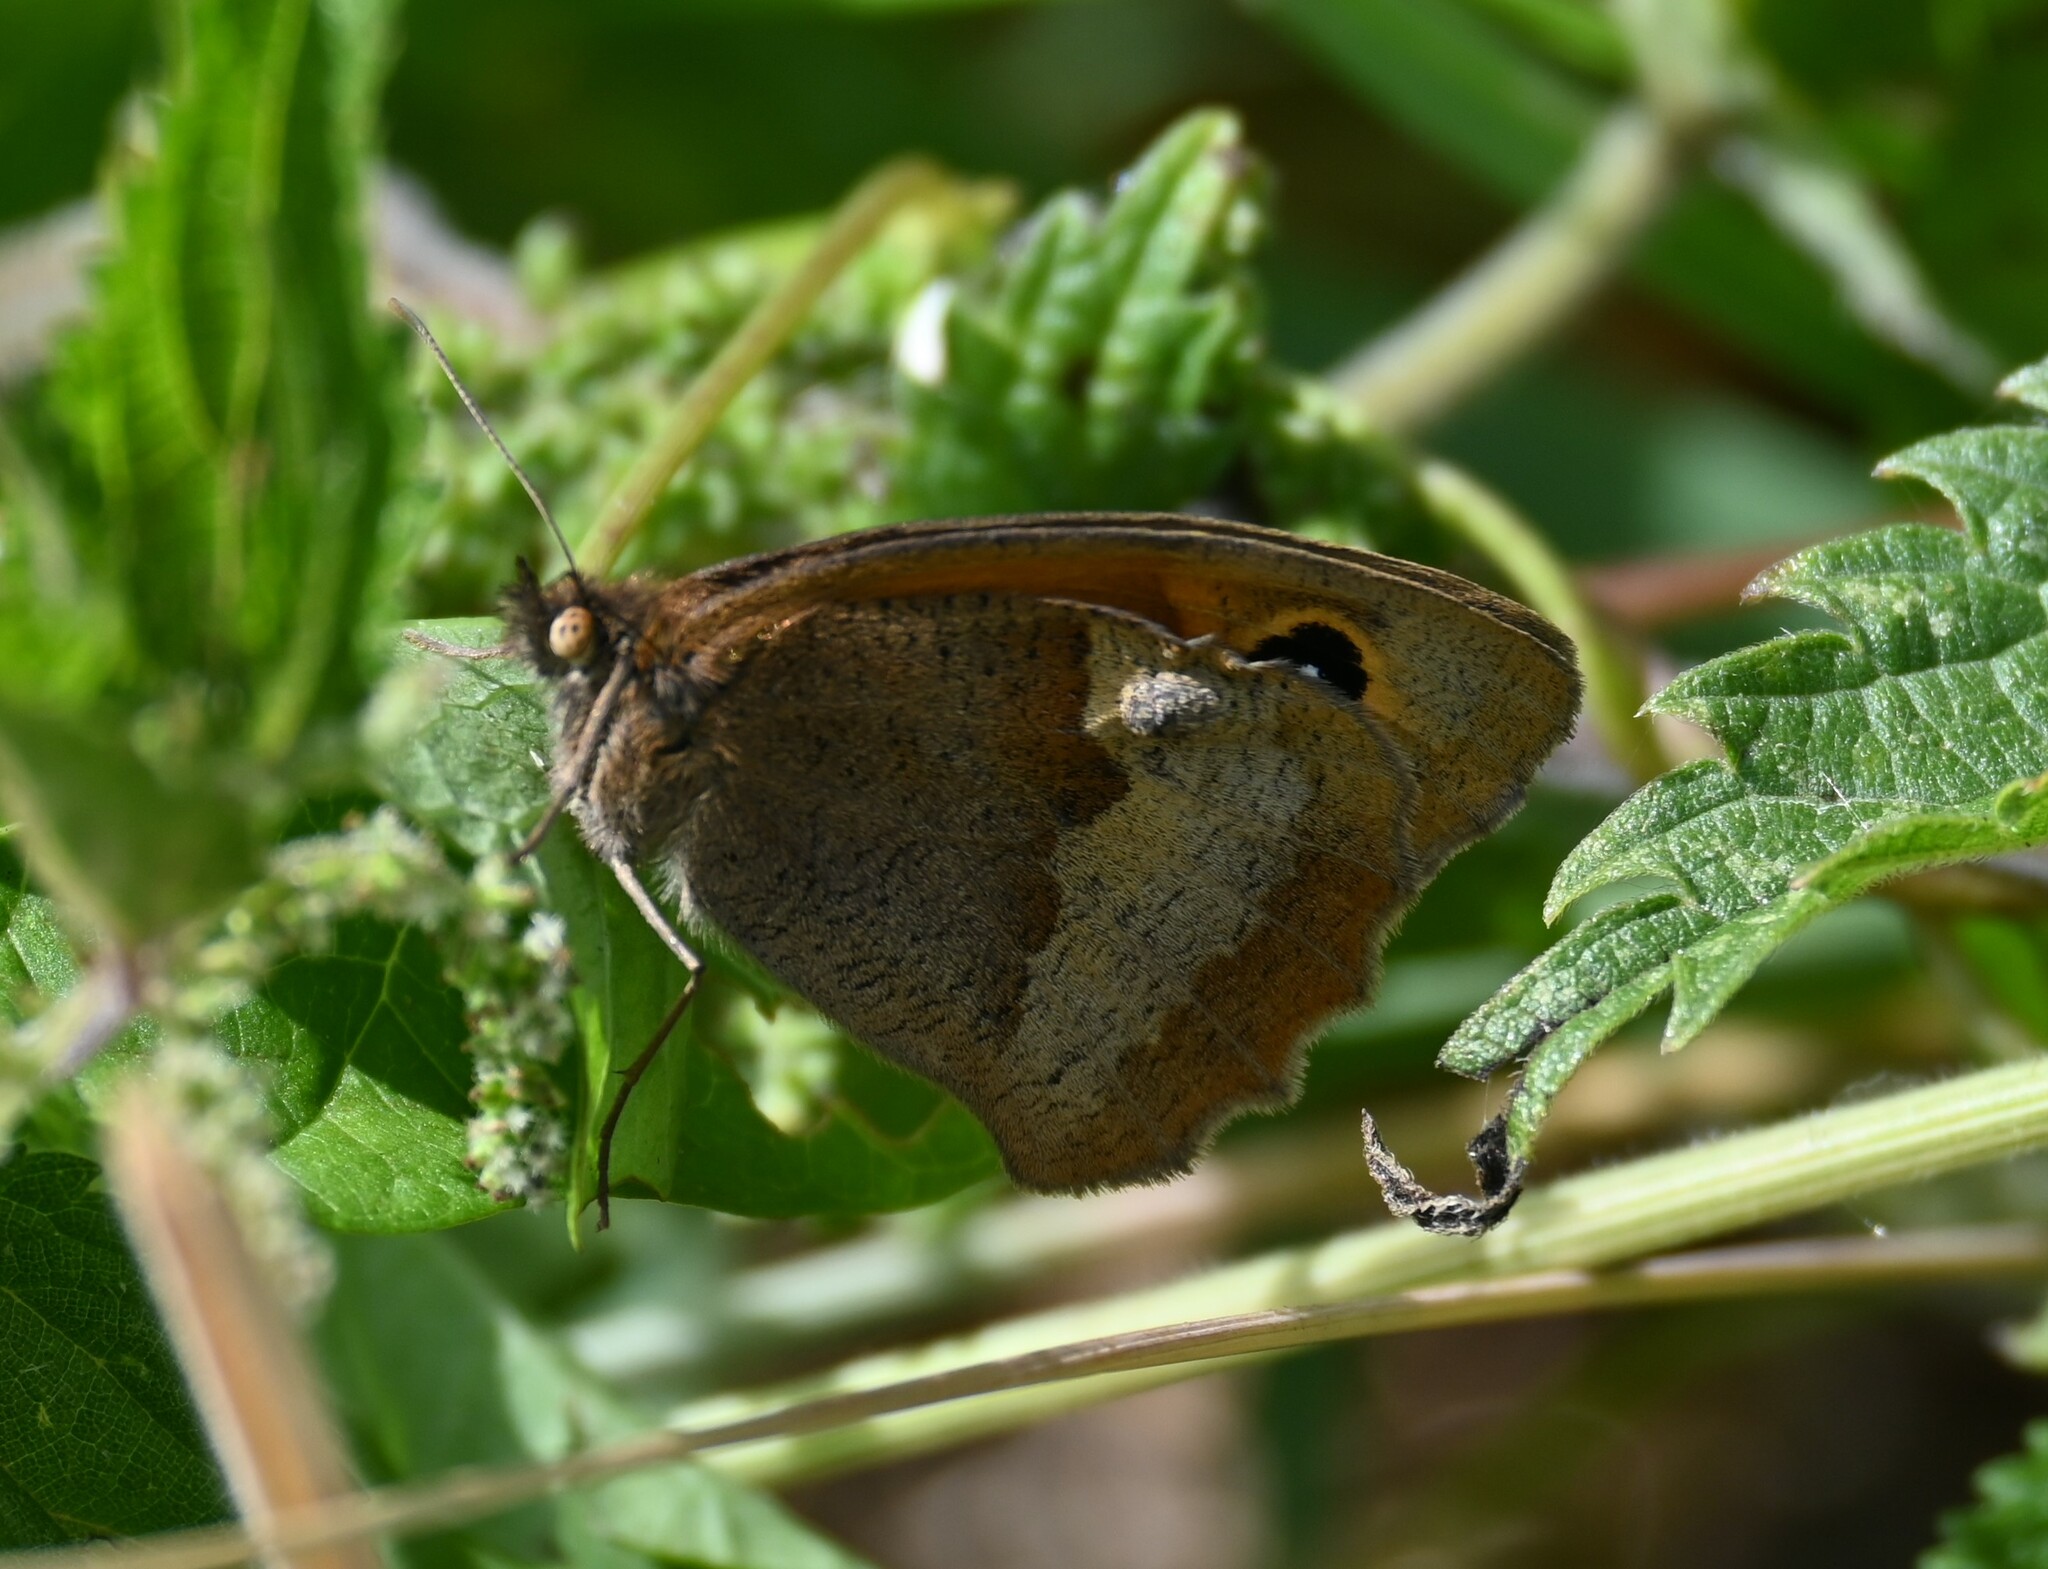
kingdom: Animalia
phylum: Arthropoda
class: Insecta
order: Lepidoptera
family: Nymphalidae
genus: Maniola
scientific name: Maniola jurtina
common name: Meadow brown
